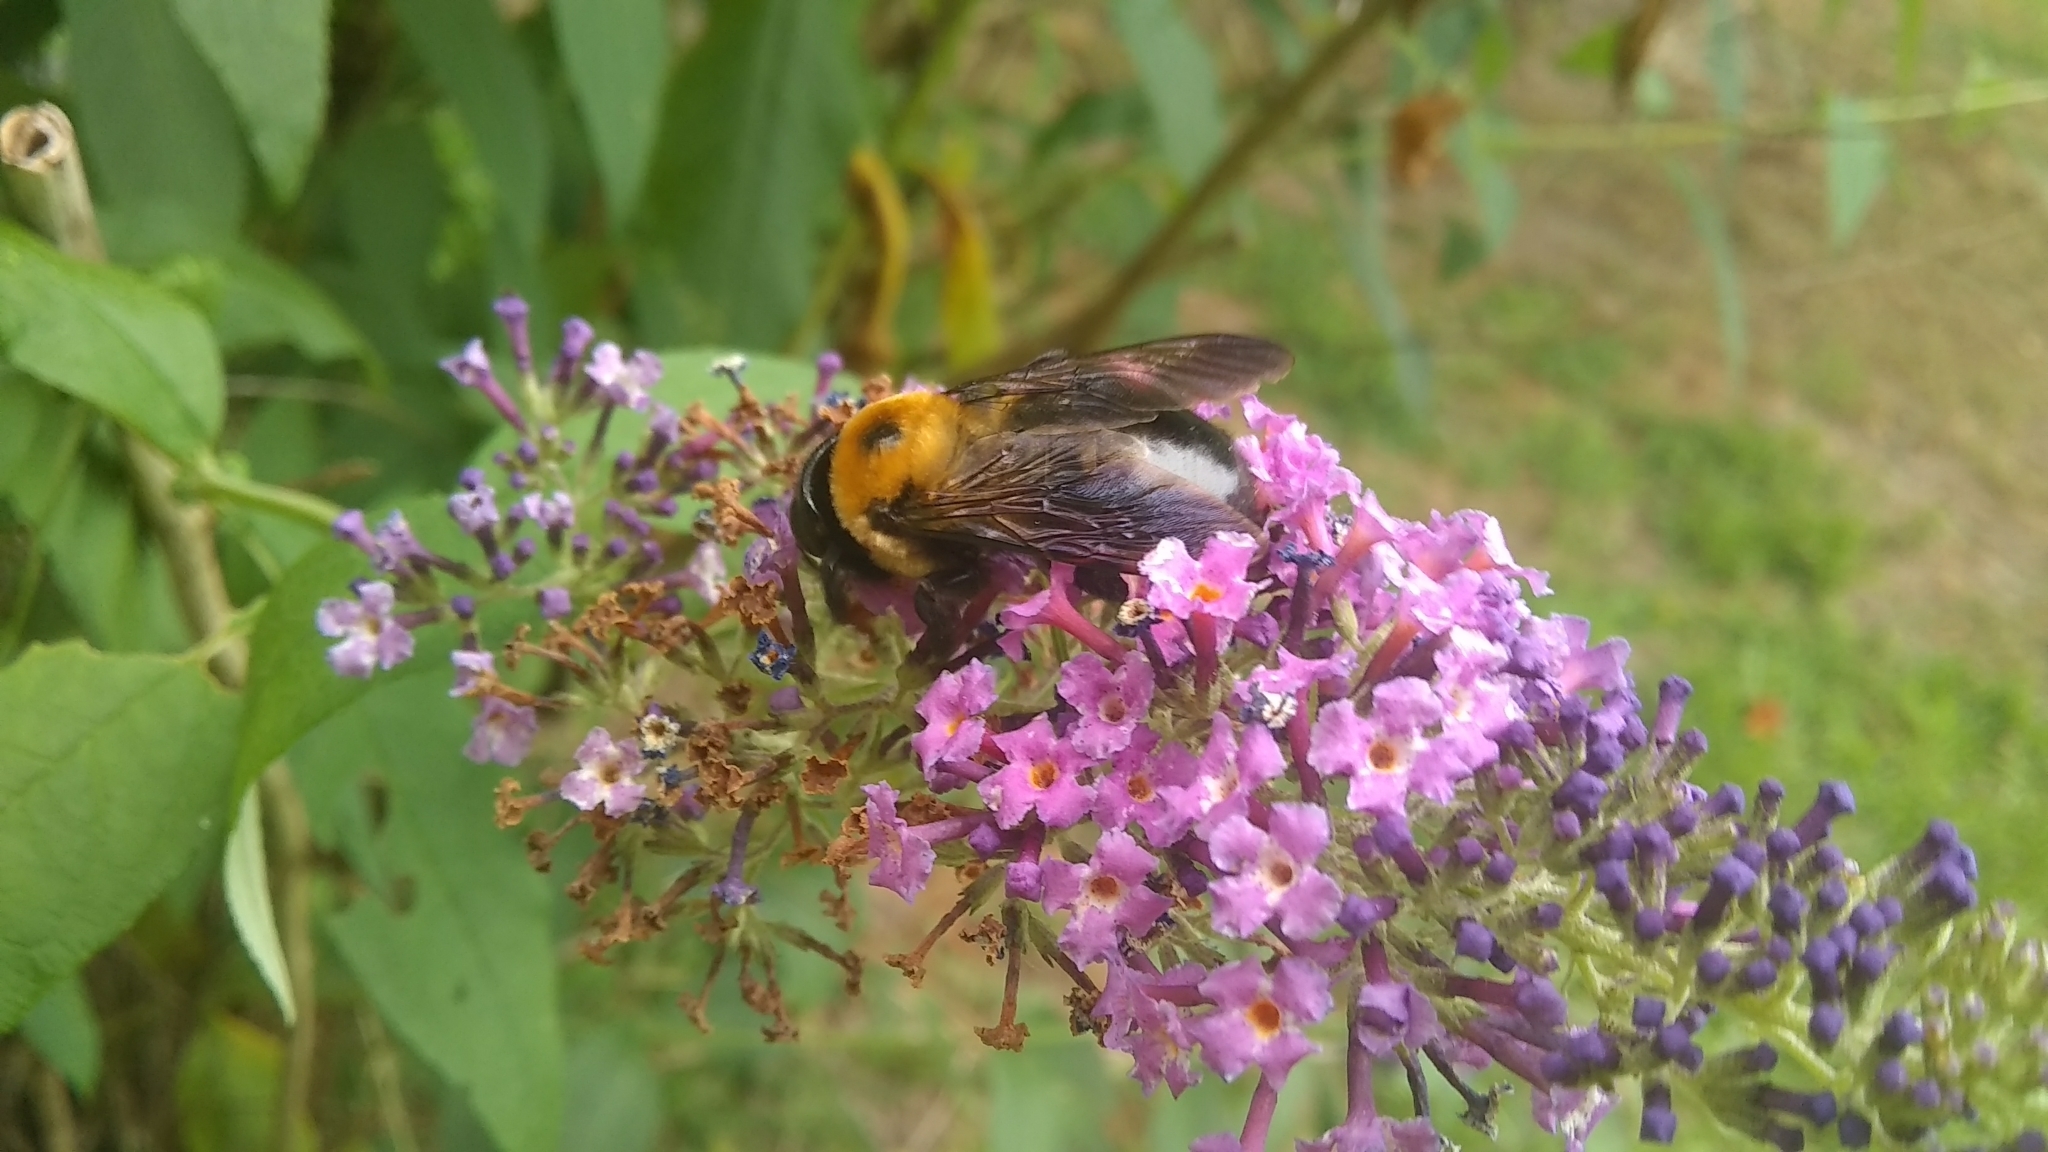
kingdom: Animalia
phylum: Arthropoda
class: Insecta
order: Hymenoptera
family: Apidae
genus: Xylocopa
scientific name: Xylocopa virginica
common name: Carpenter bee
